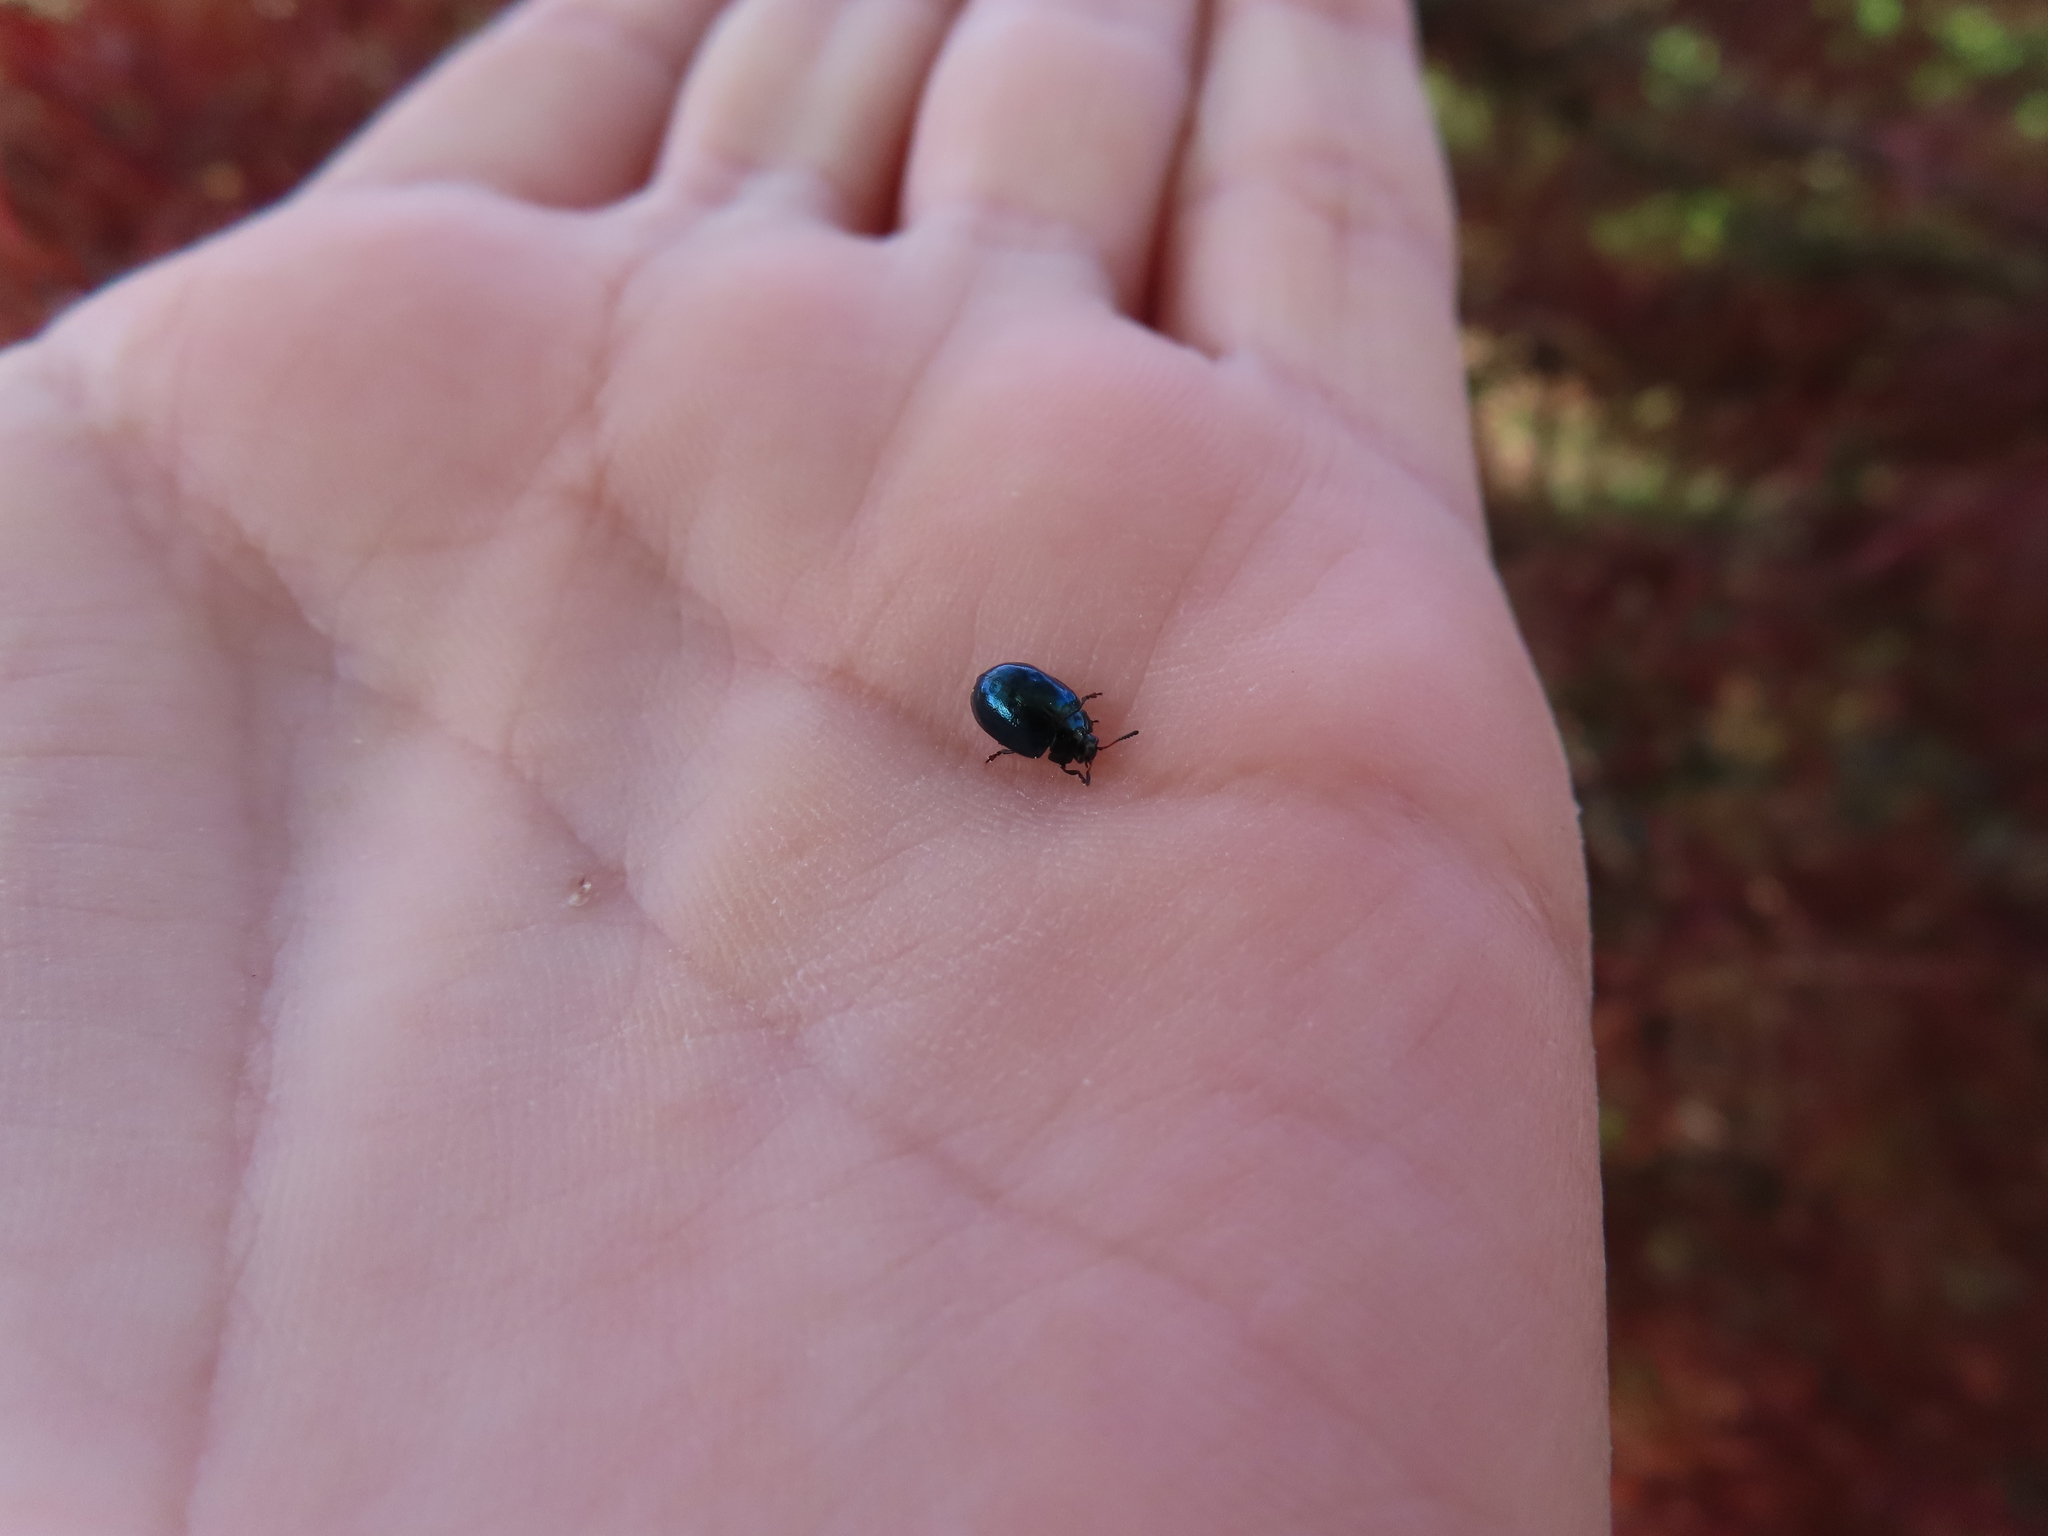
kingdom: Animalia
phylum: Arthropoda
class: Insecta
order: Coleoptera
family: Chrysomelidae
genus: Plagiodera
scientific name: Plagiodera versicolora
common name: Imported willow leaf beetle
